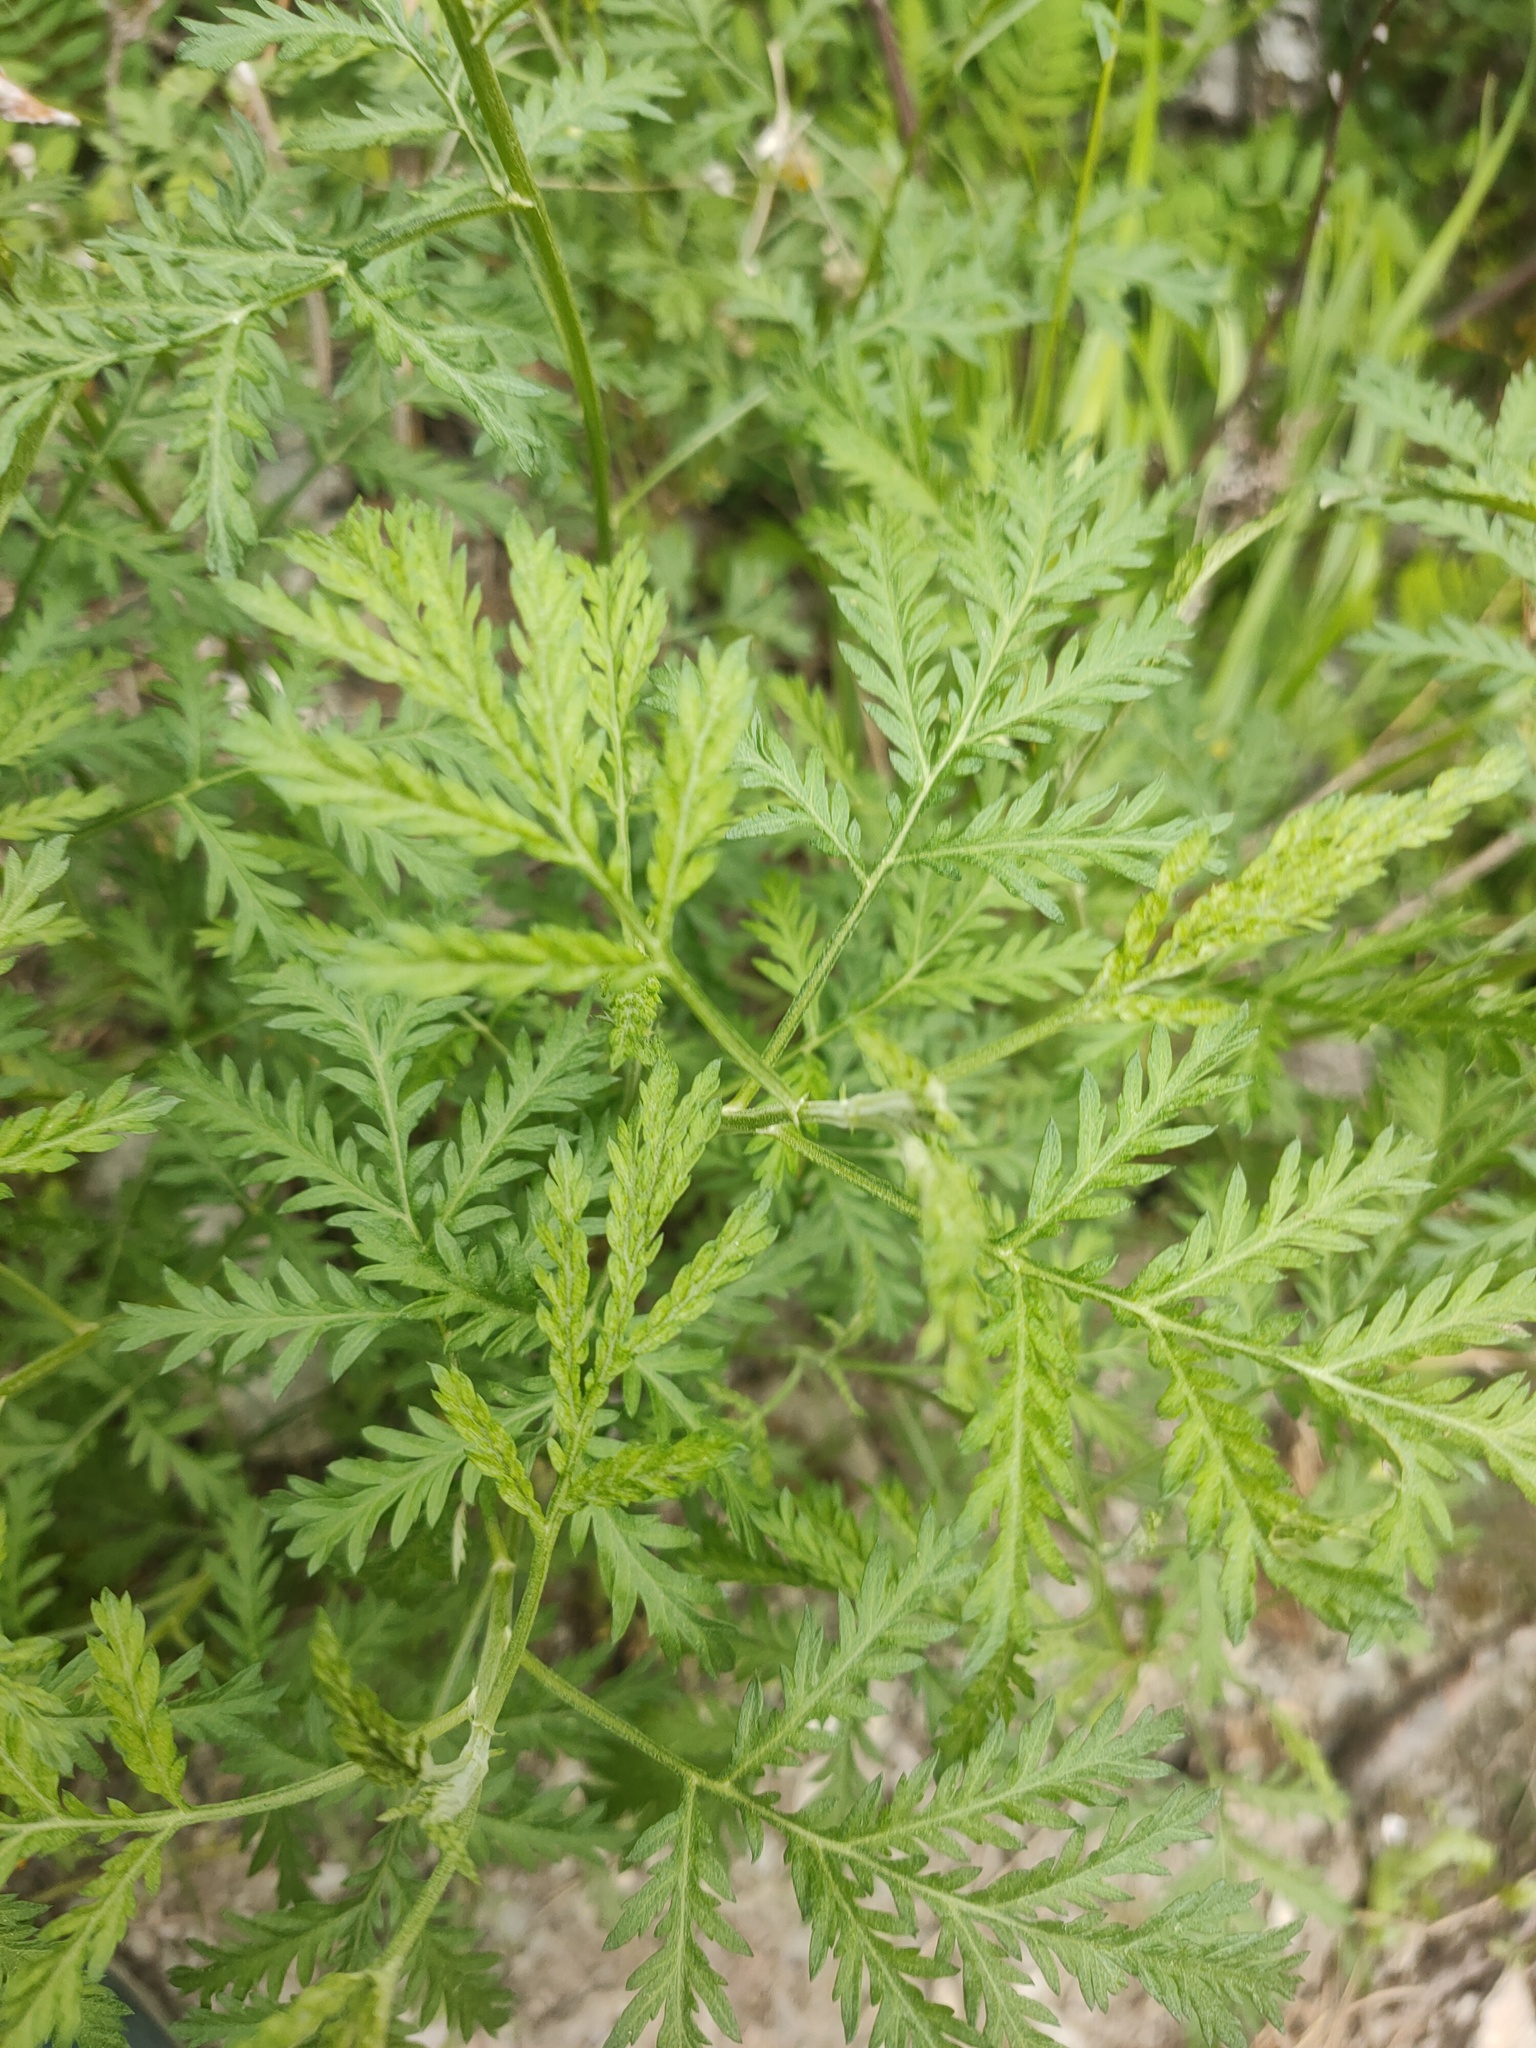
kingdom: Plantae
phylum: Tracheophyta
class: Magnoliopsida
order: Asterales
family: Asteraceae
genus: Artemisia
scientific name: Artemisia gmelinii
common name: Gmelin's wormwood
